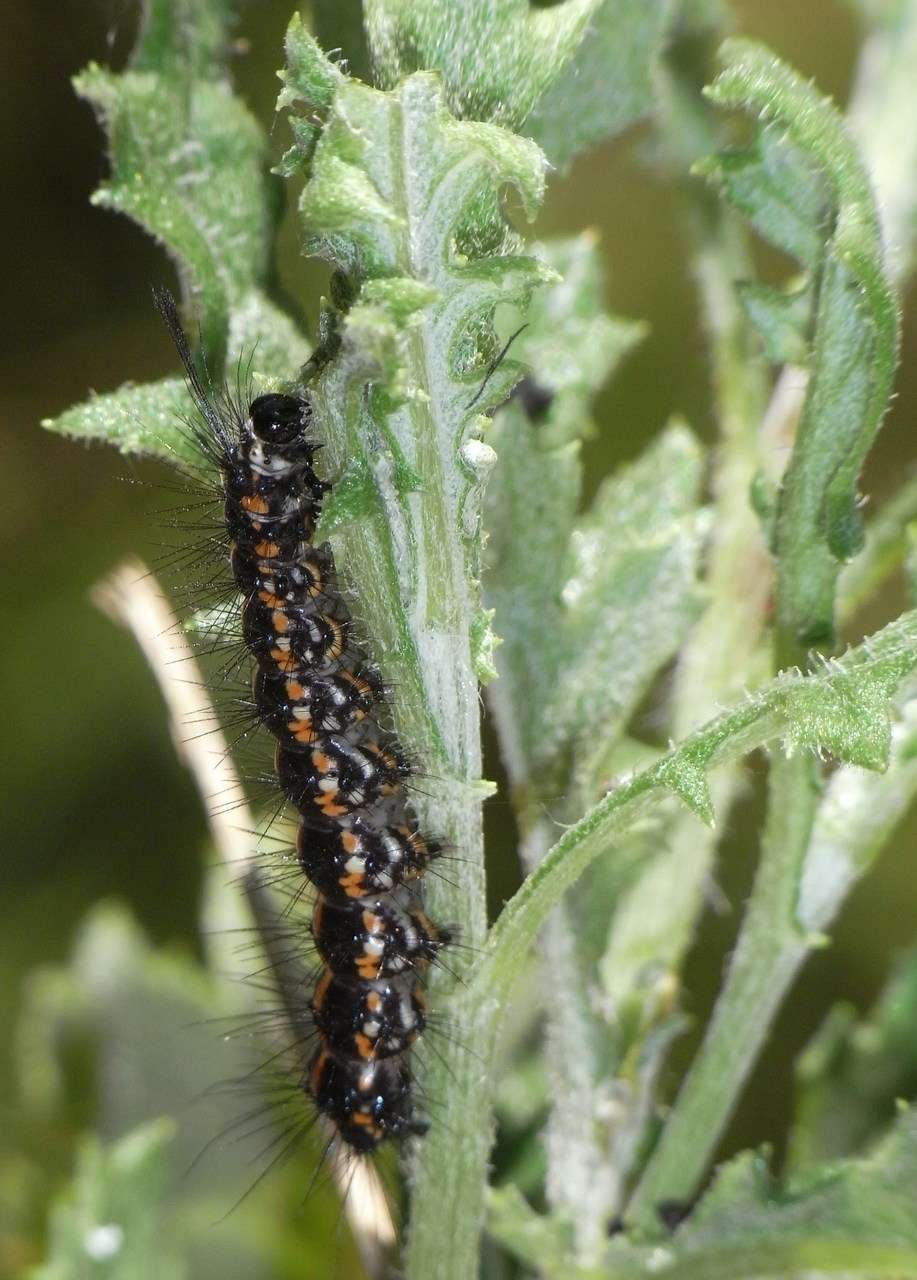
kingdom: Animalia
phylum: Arthropoda
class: Insecta
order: Lepidoptera
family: Erebidae
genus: Nyctemera
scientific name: Nyctemera amicus
